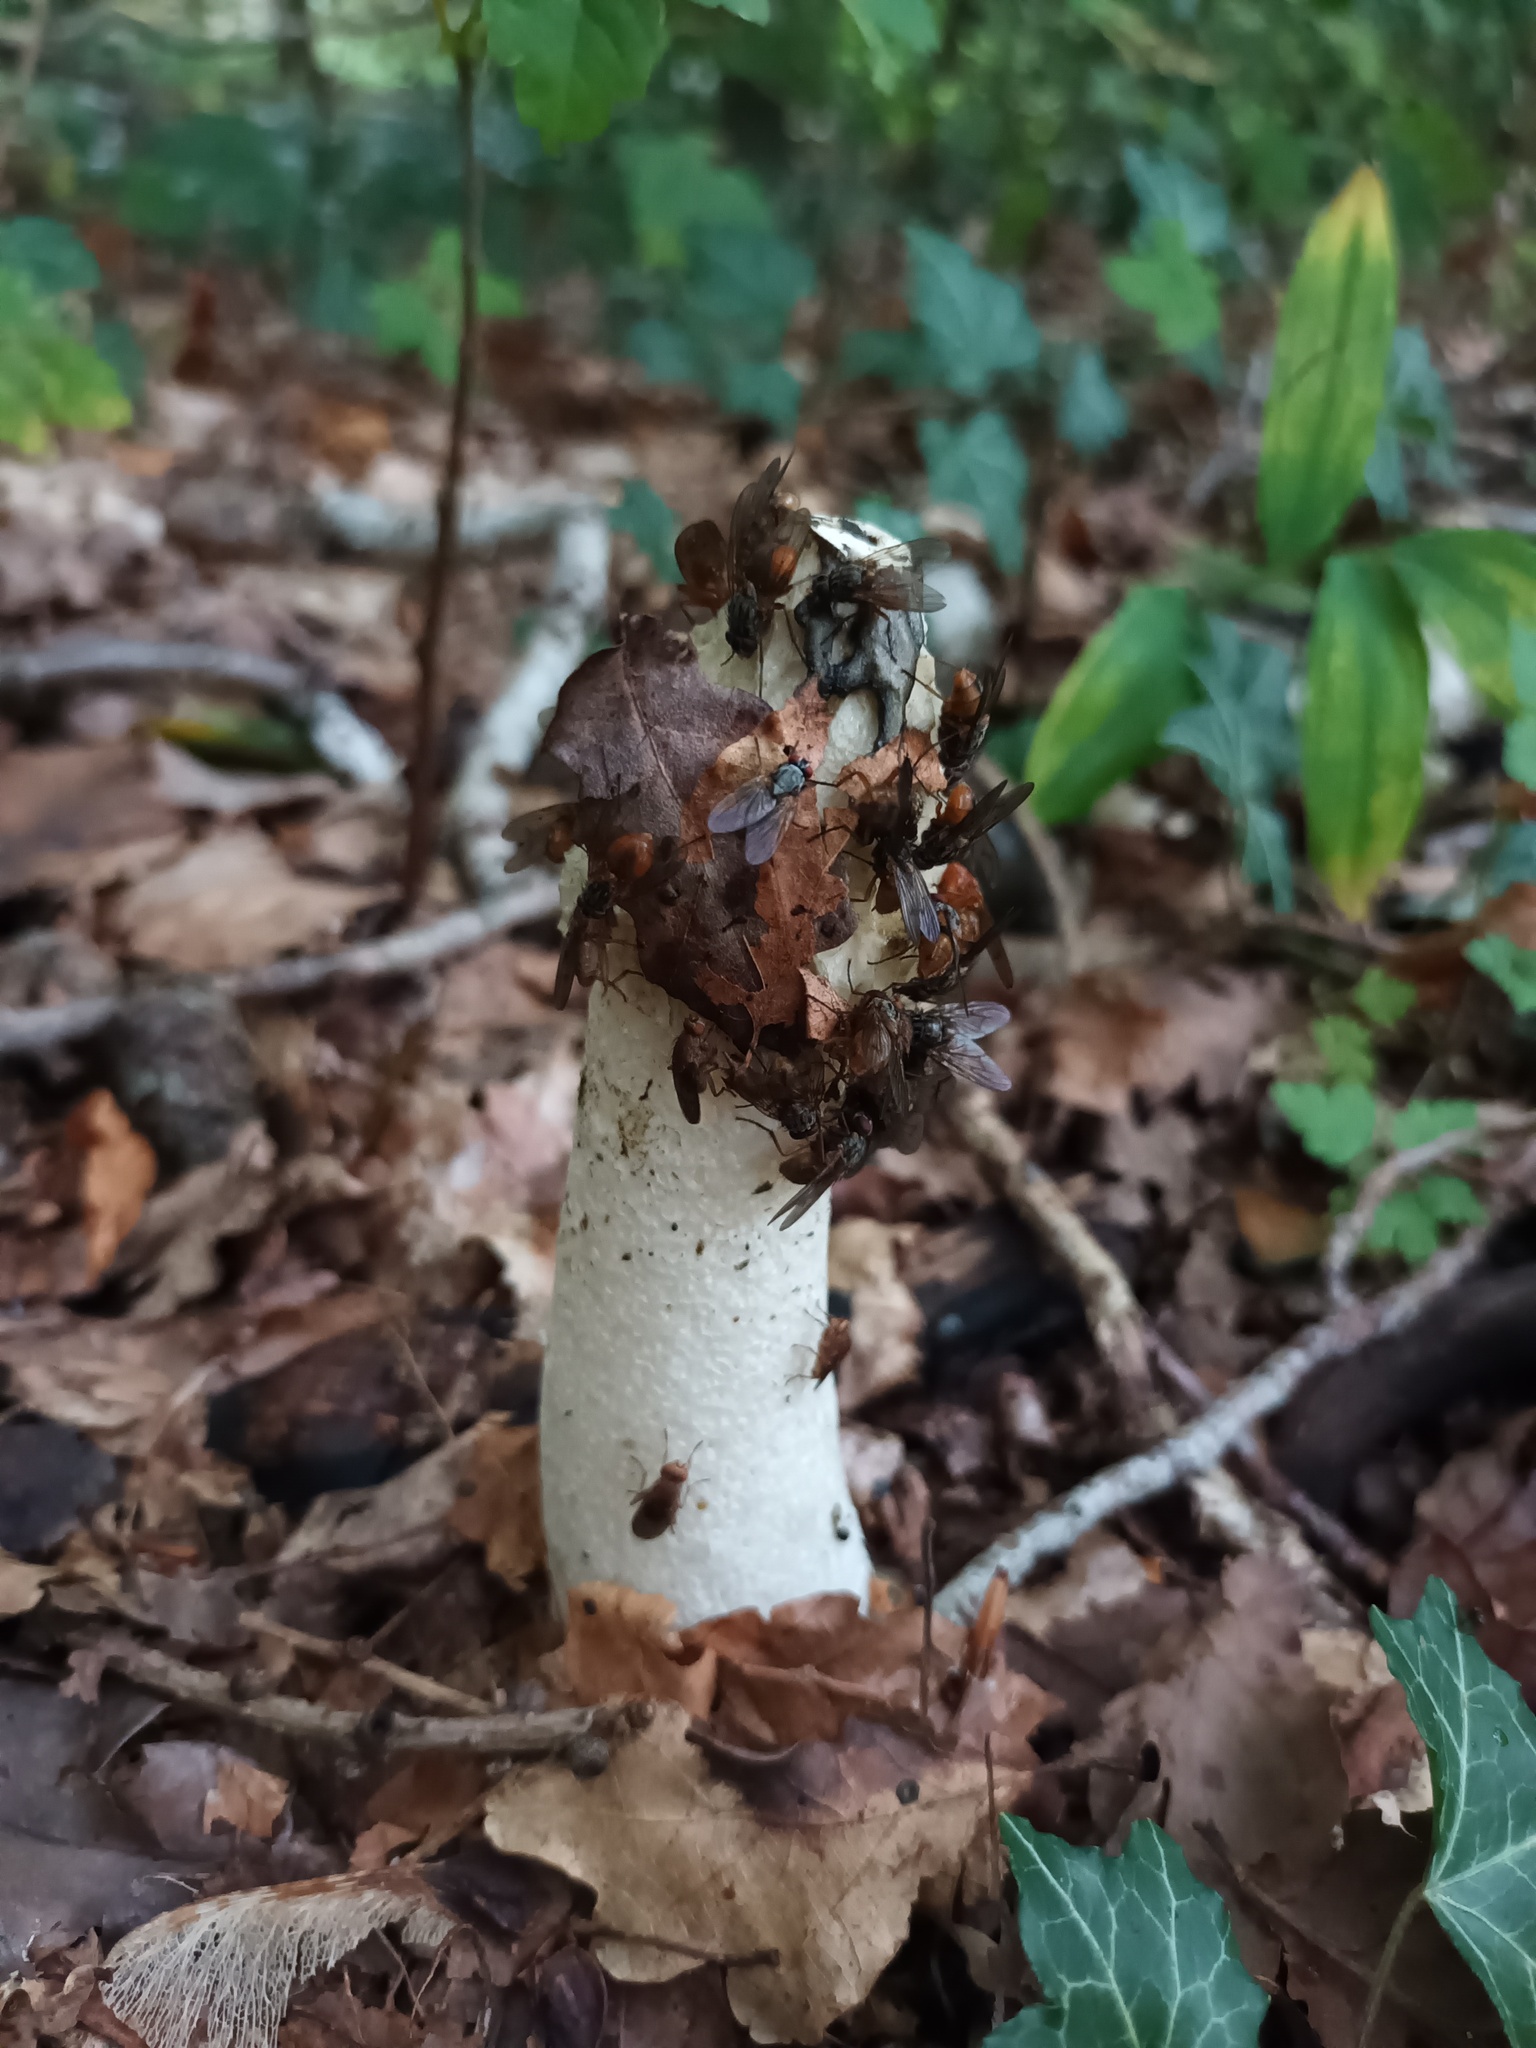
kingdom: Fungi
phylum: Basidiomycota
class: Agaricomycetes
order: Phallales
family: Phallaceae
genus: Phallus
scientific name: Phallus impudicus
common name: Common stinkhorn
